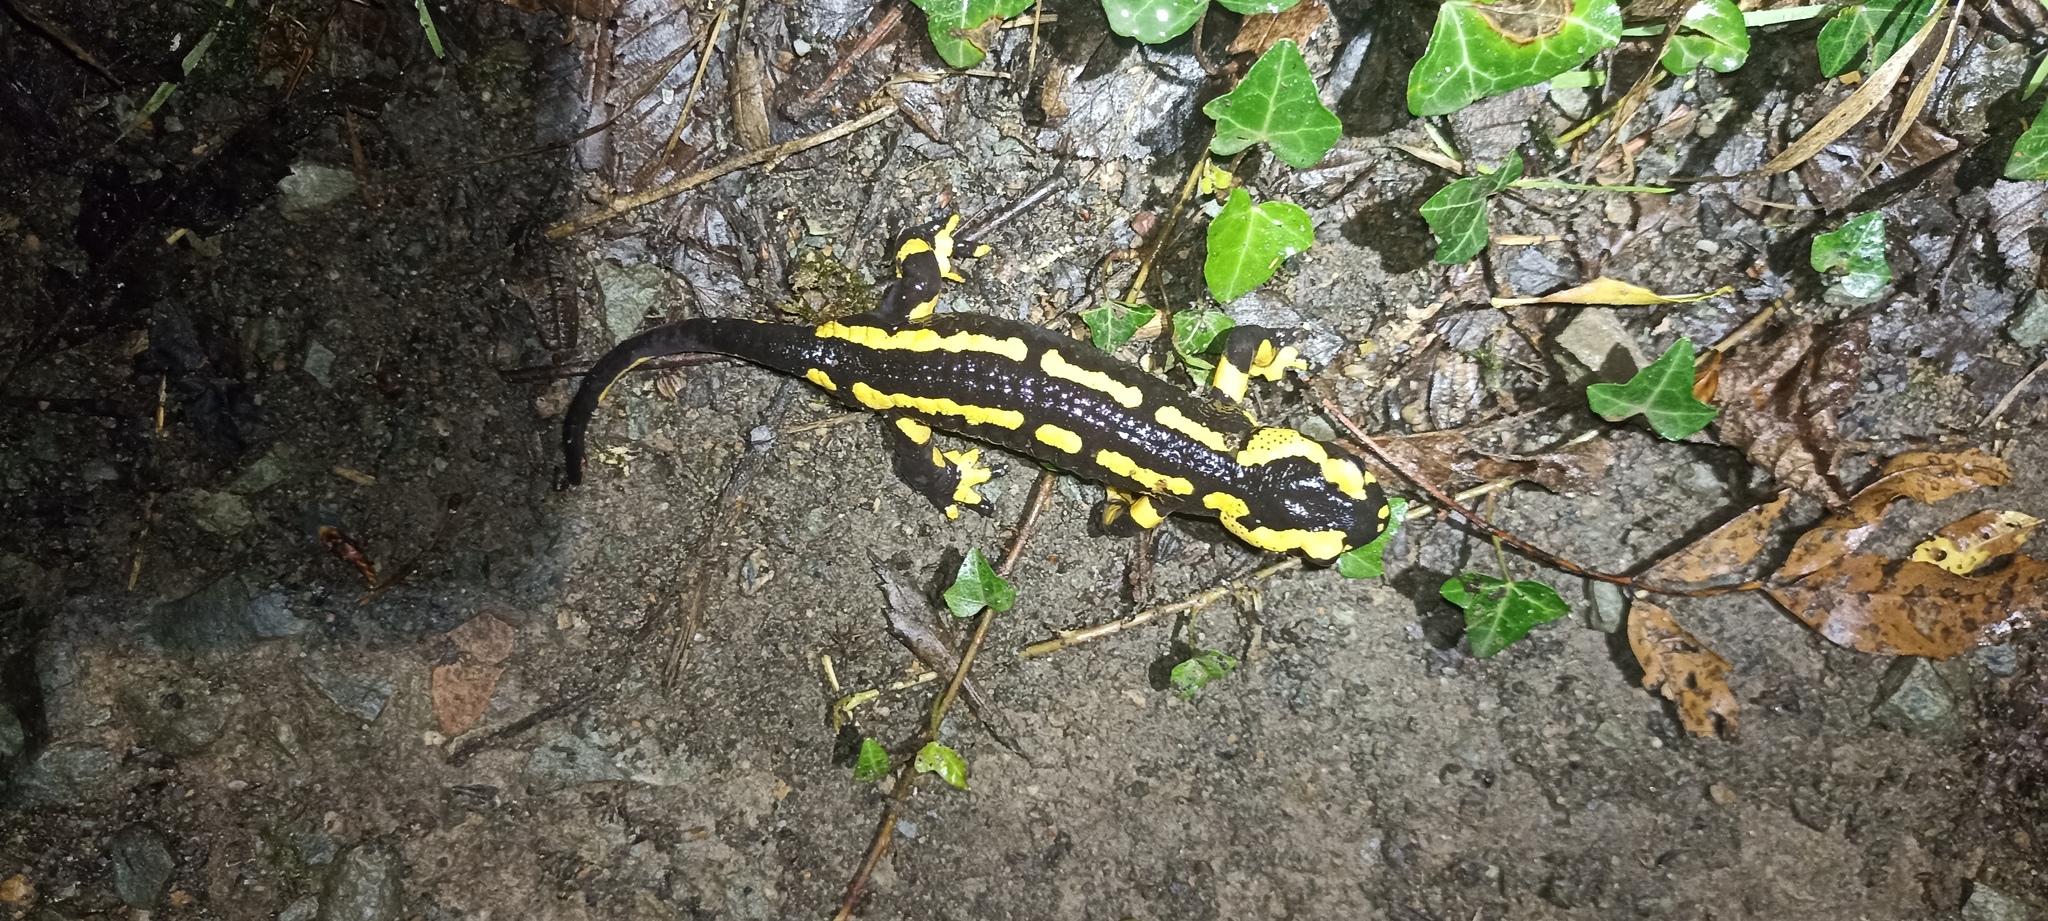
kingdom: Animalia
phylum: Chordata
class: Amphibia
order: Caudata
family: Salamandridae
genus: Salamandra
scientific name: Salamandra salamandra
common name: Fire salamander
